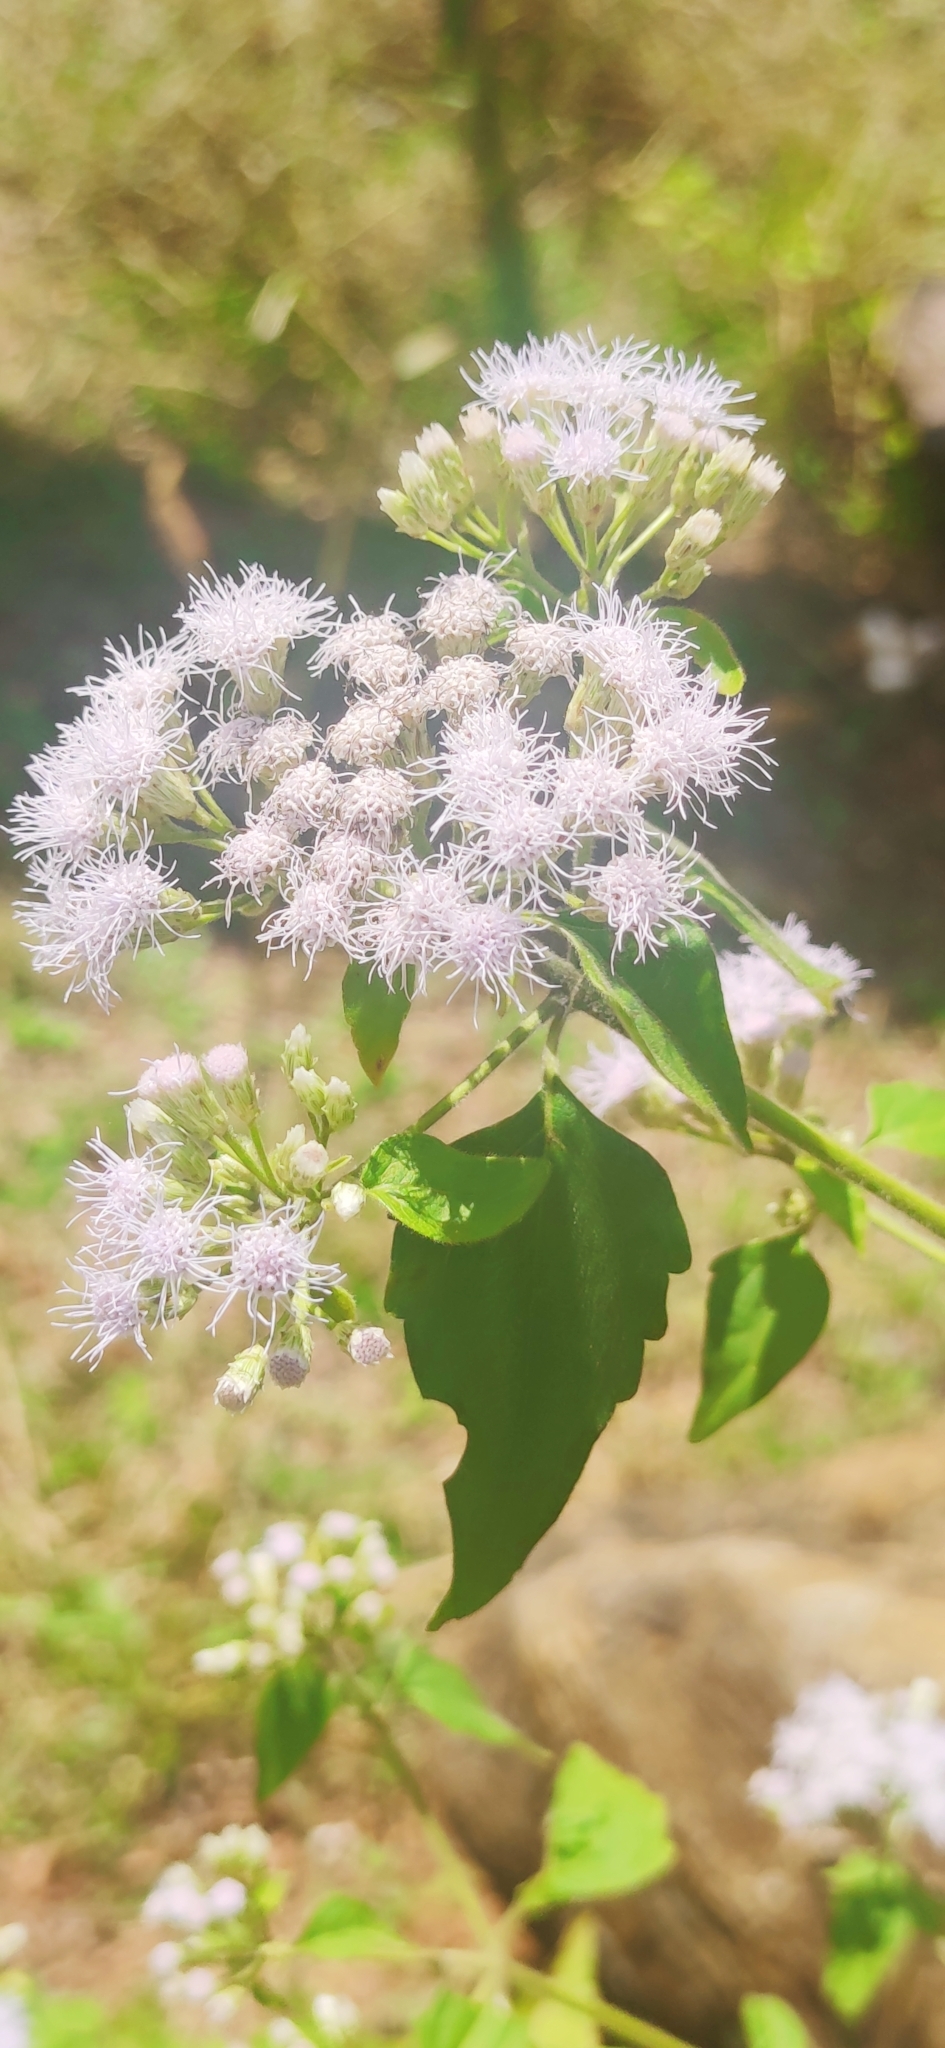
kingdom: Plantae
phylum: Tracheophyta
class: Magnoliopsida
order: Asterales
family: Asteraceae
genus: Chromolaena
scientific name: Chromolaena odorata
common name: Siamweed
